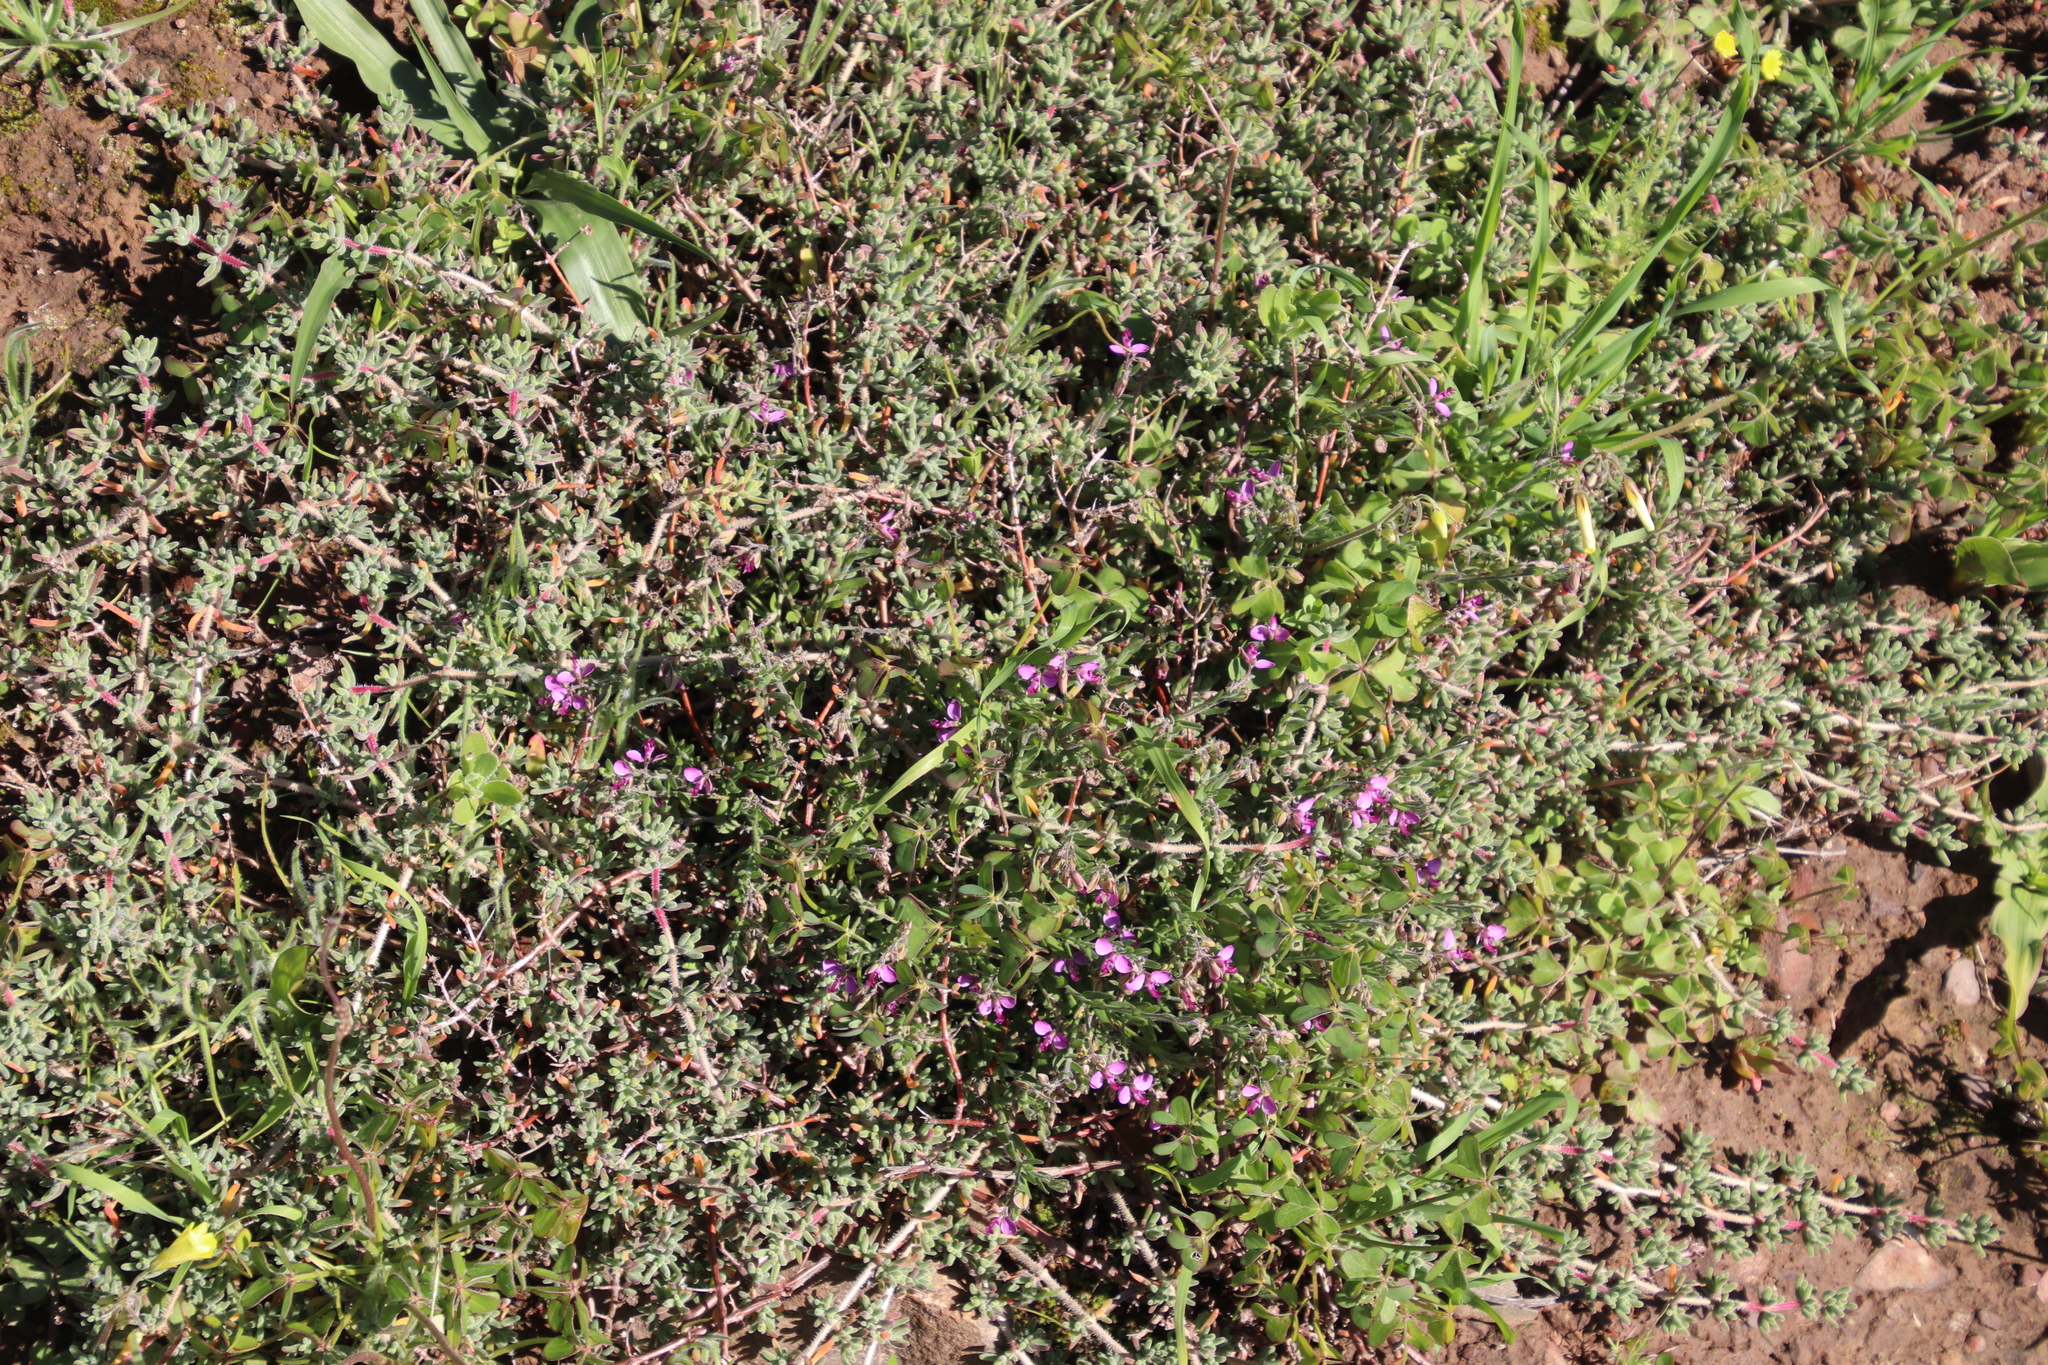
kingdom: Plantae
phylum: Tracheophyta
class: Magnoliopsida
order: Fabales
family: Polygalaceae
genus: Polygala
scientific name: Polygala scabra
